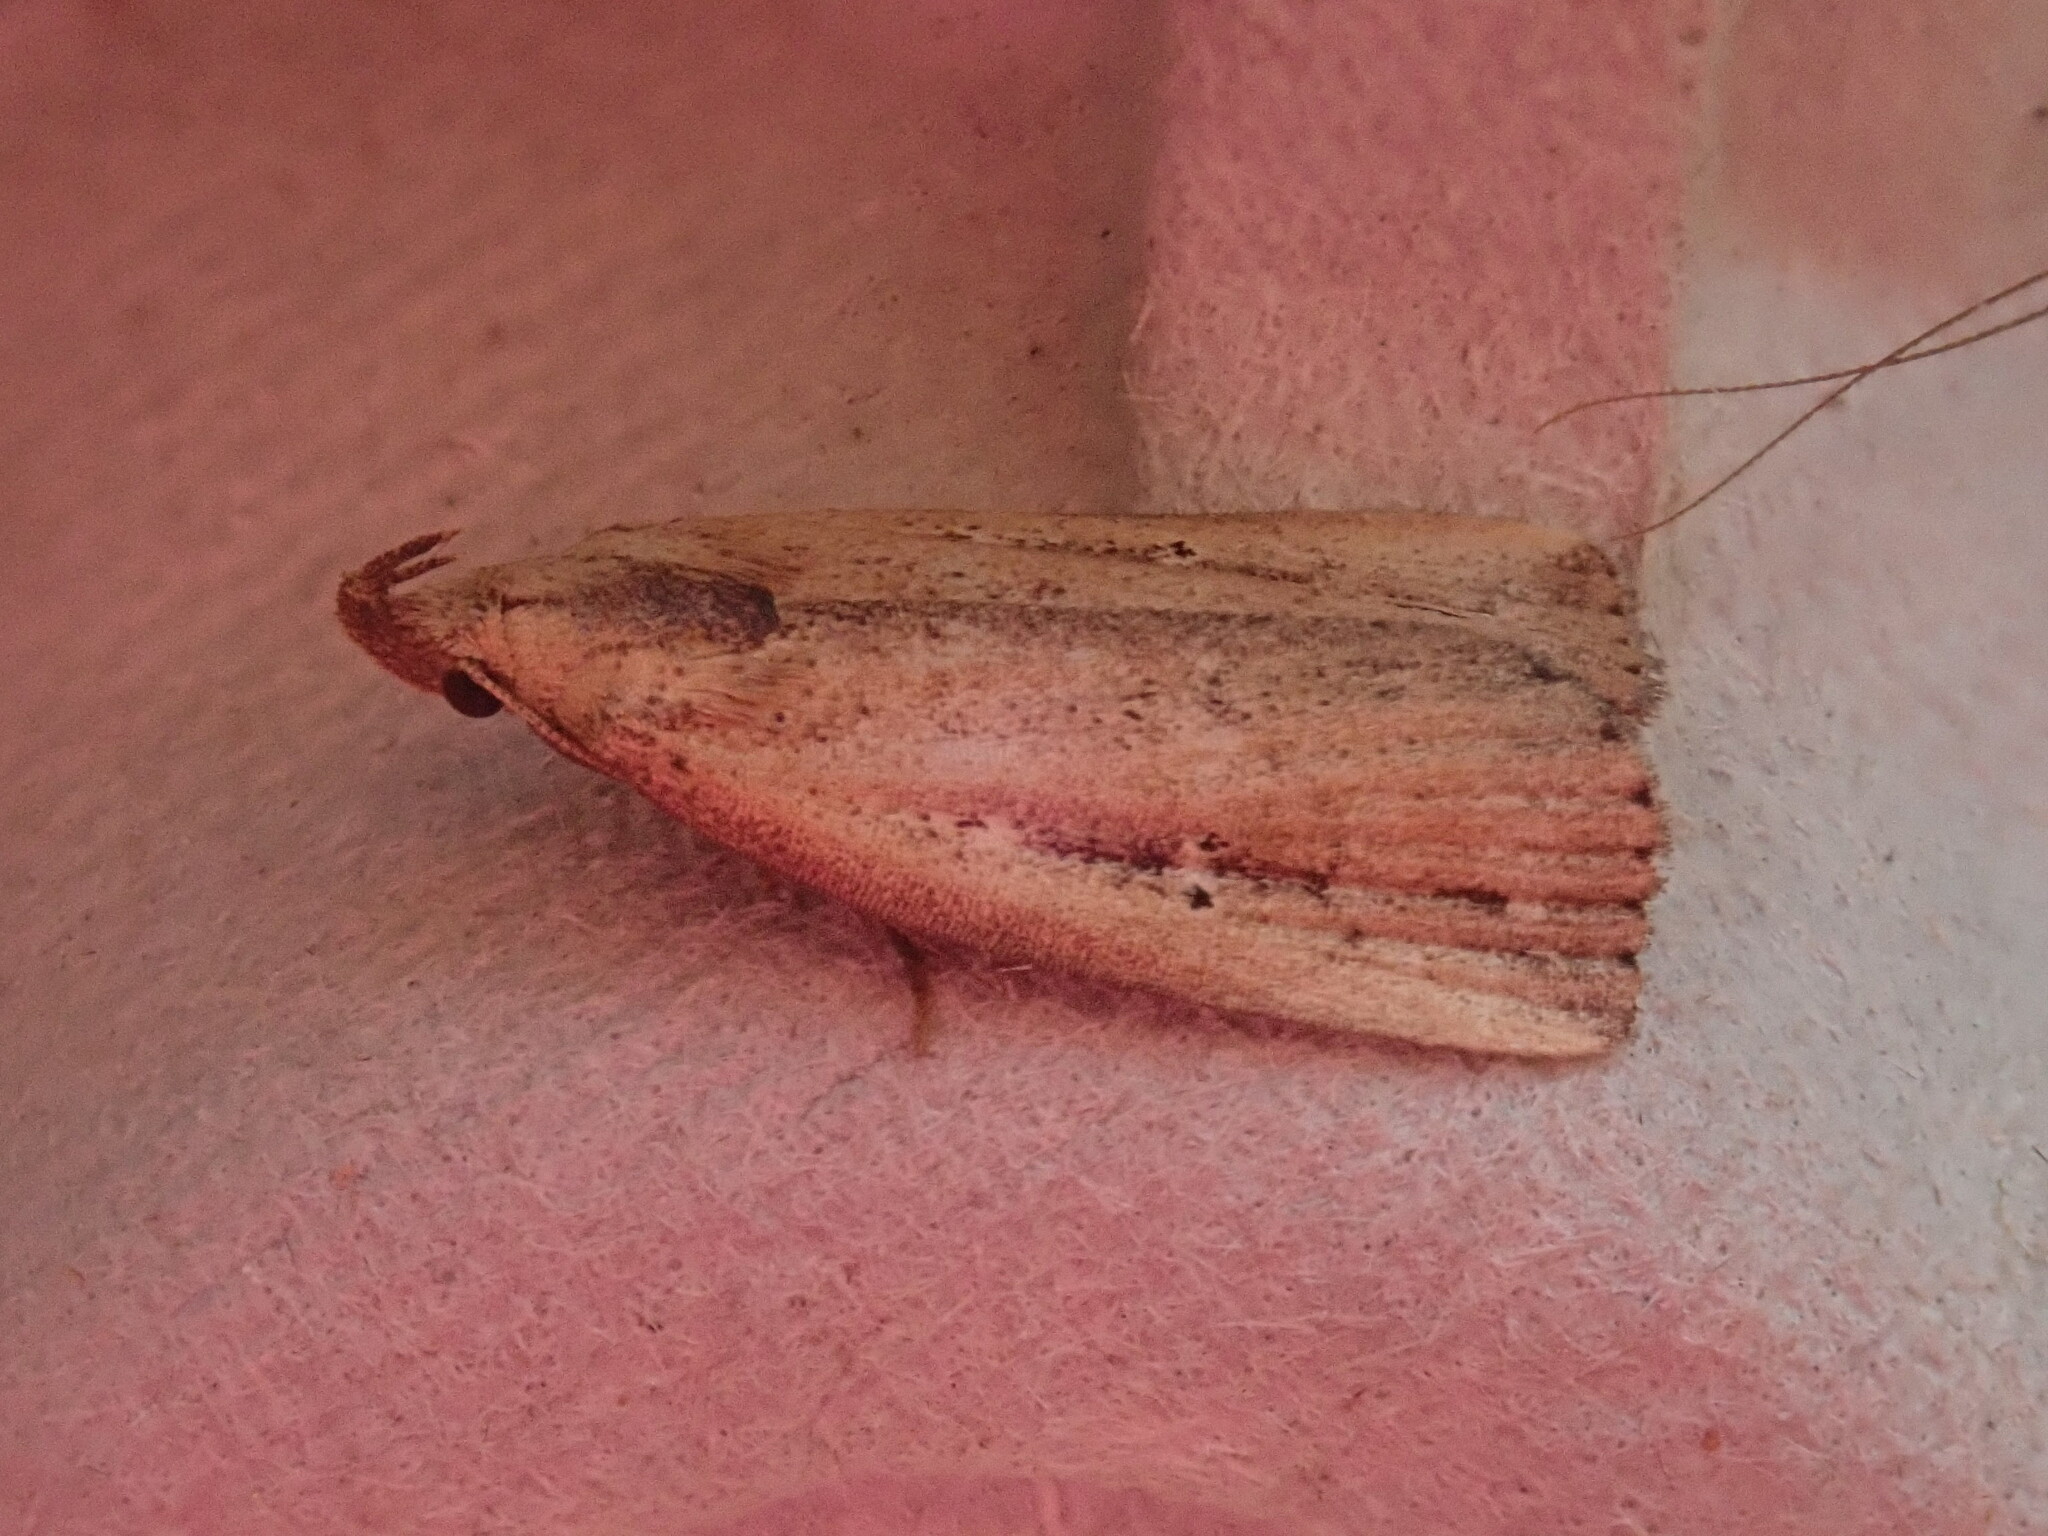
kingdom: Animalia
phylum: Arthropoda
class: Insecta
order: Lepidoptera
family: Erebidae
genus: Macrochilo
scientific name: Macrochilo orciferalis
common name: Bronzy owlet
